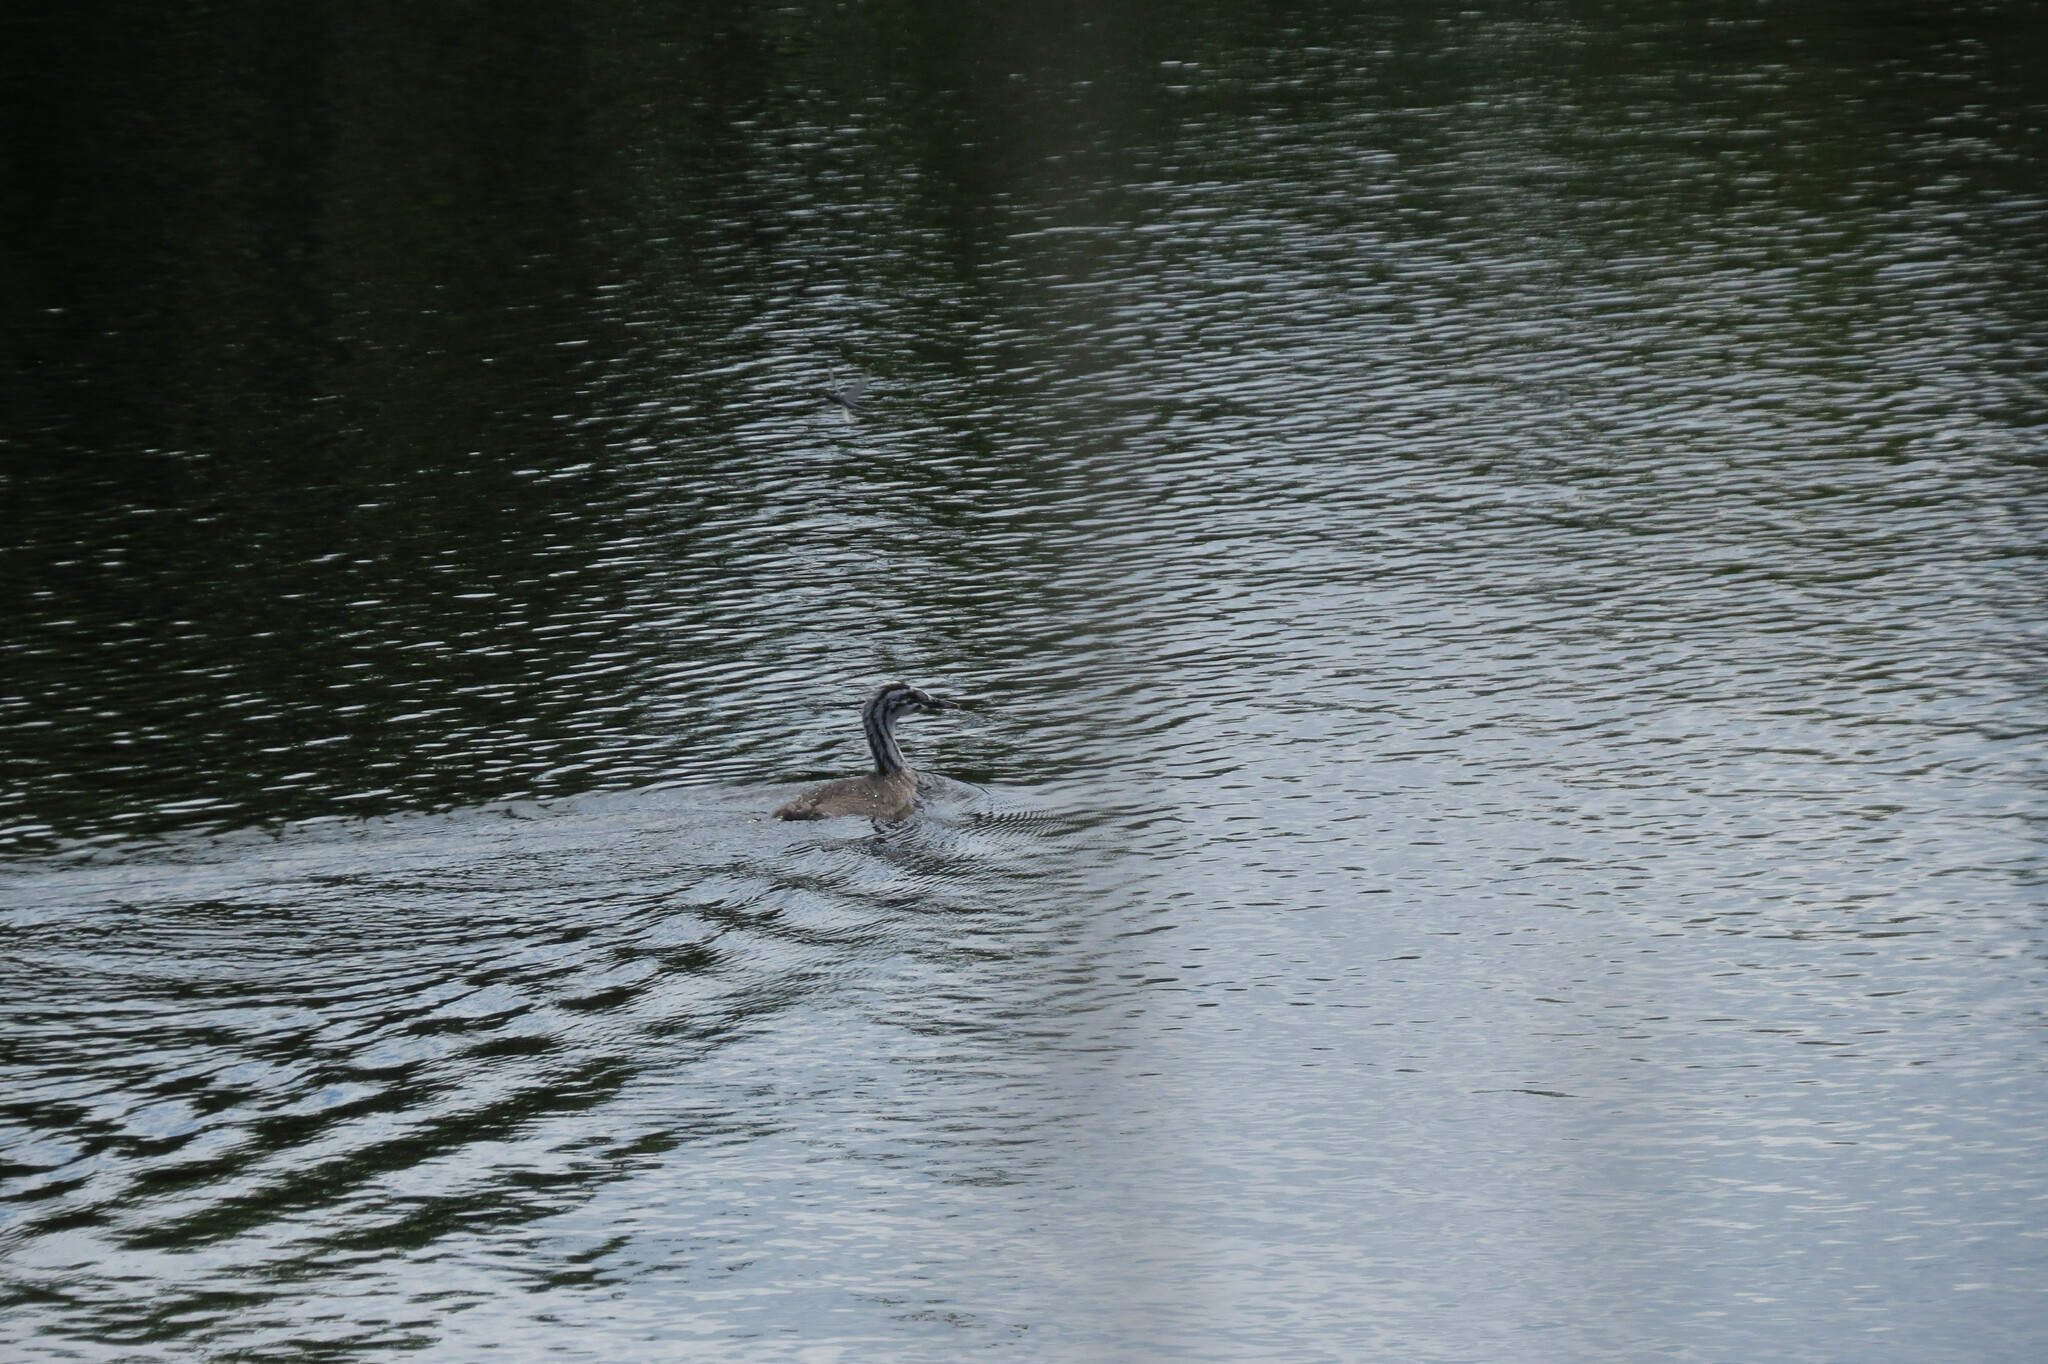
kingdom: Animalia
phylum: Chordata
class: Aves
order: Podicipediformes
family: Podicipedidae
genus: Podiceps
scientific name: Podiceps cristatus
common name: Great crested grebe
